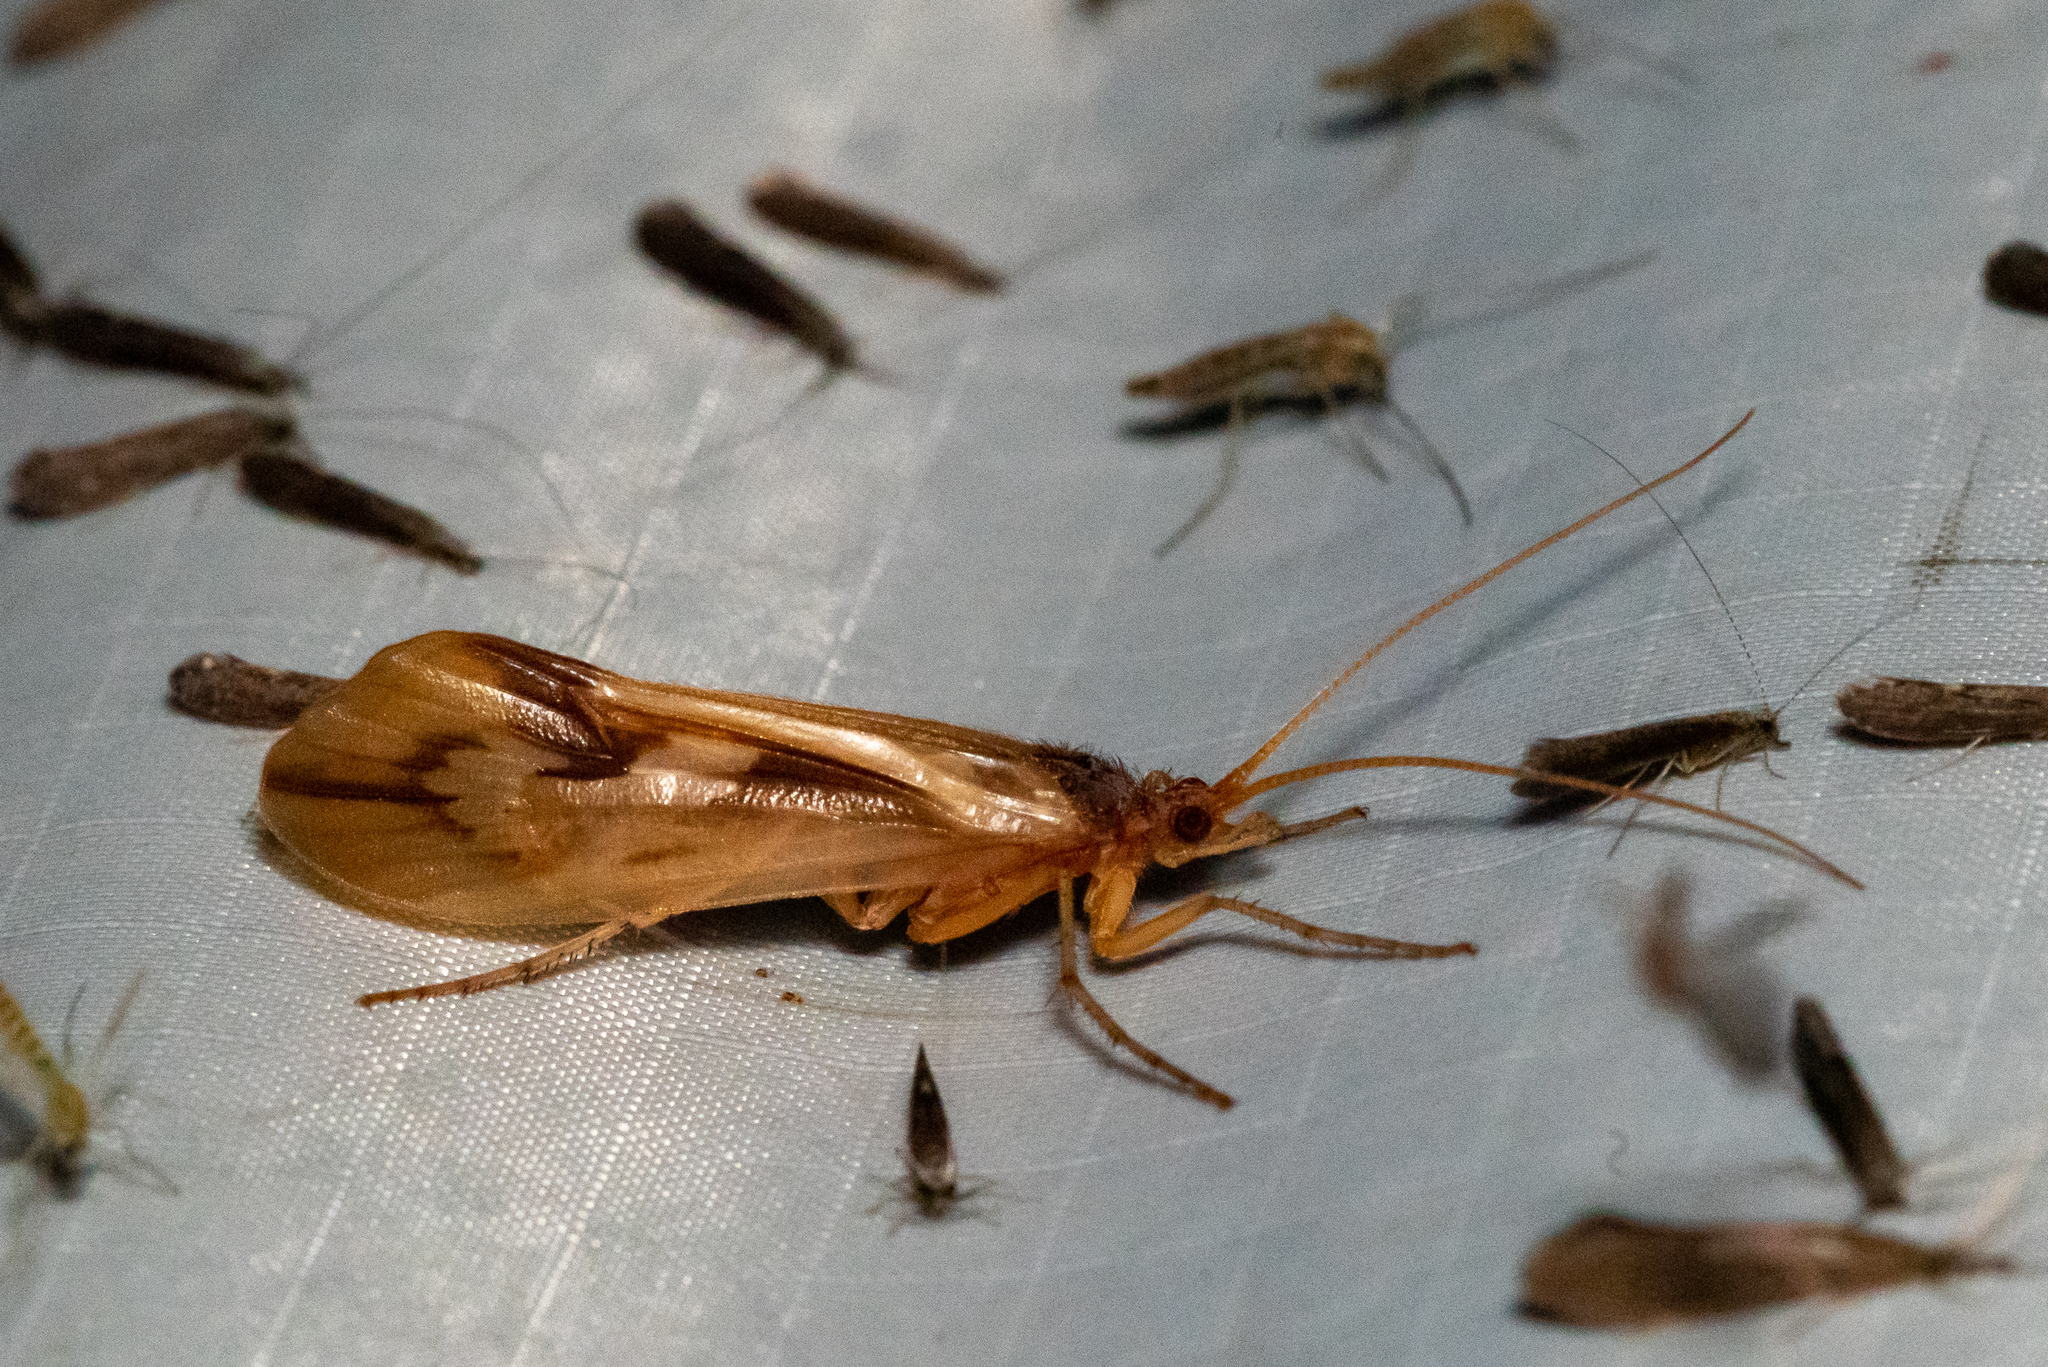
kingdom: Animalia
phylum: Arthropoda
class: Insecta
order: Trichoptera
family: Limnephilidae
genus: Platycentropus
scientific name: Platycentropus radiatus
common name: Chocolate-and-cream sedge
